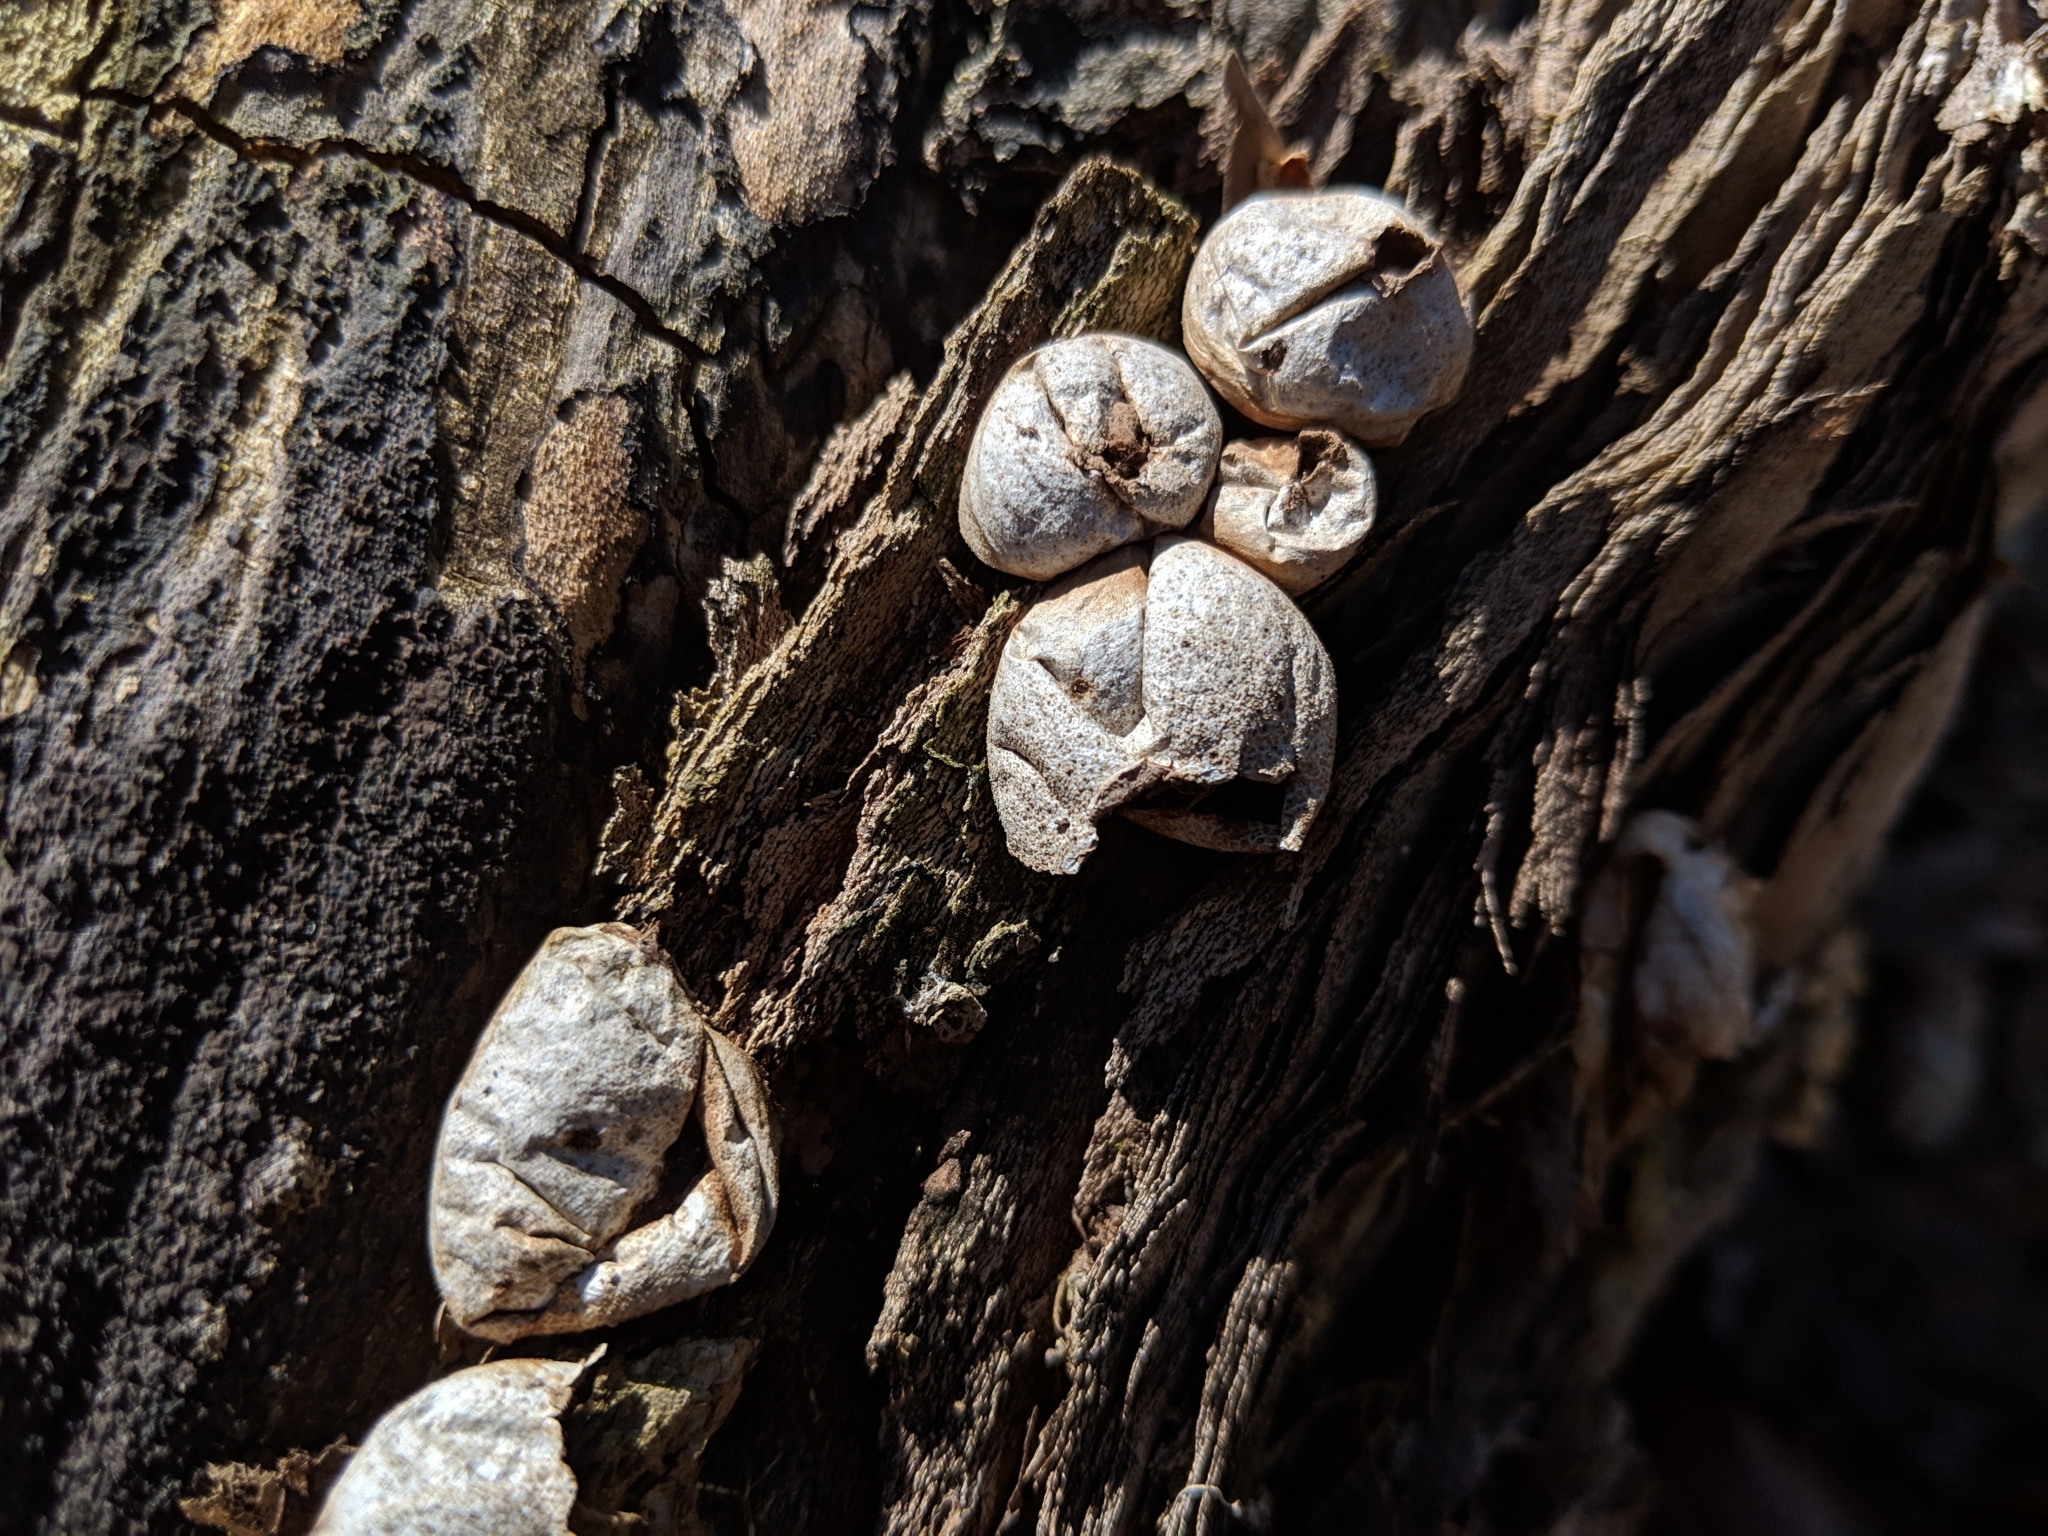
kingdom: Fungi
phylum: Basidiomycota
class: Agaricomycetes
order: Agaricales
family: Lycoperdaceae
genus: Apioperdon
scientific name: Apioperdon pyriforme
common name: Pear-shaped puffball
